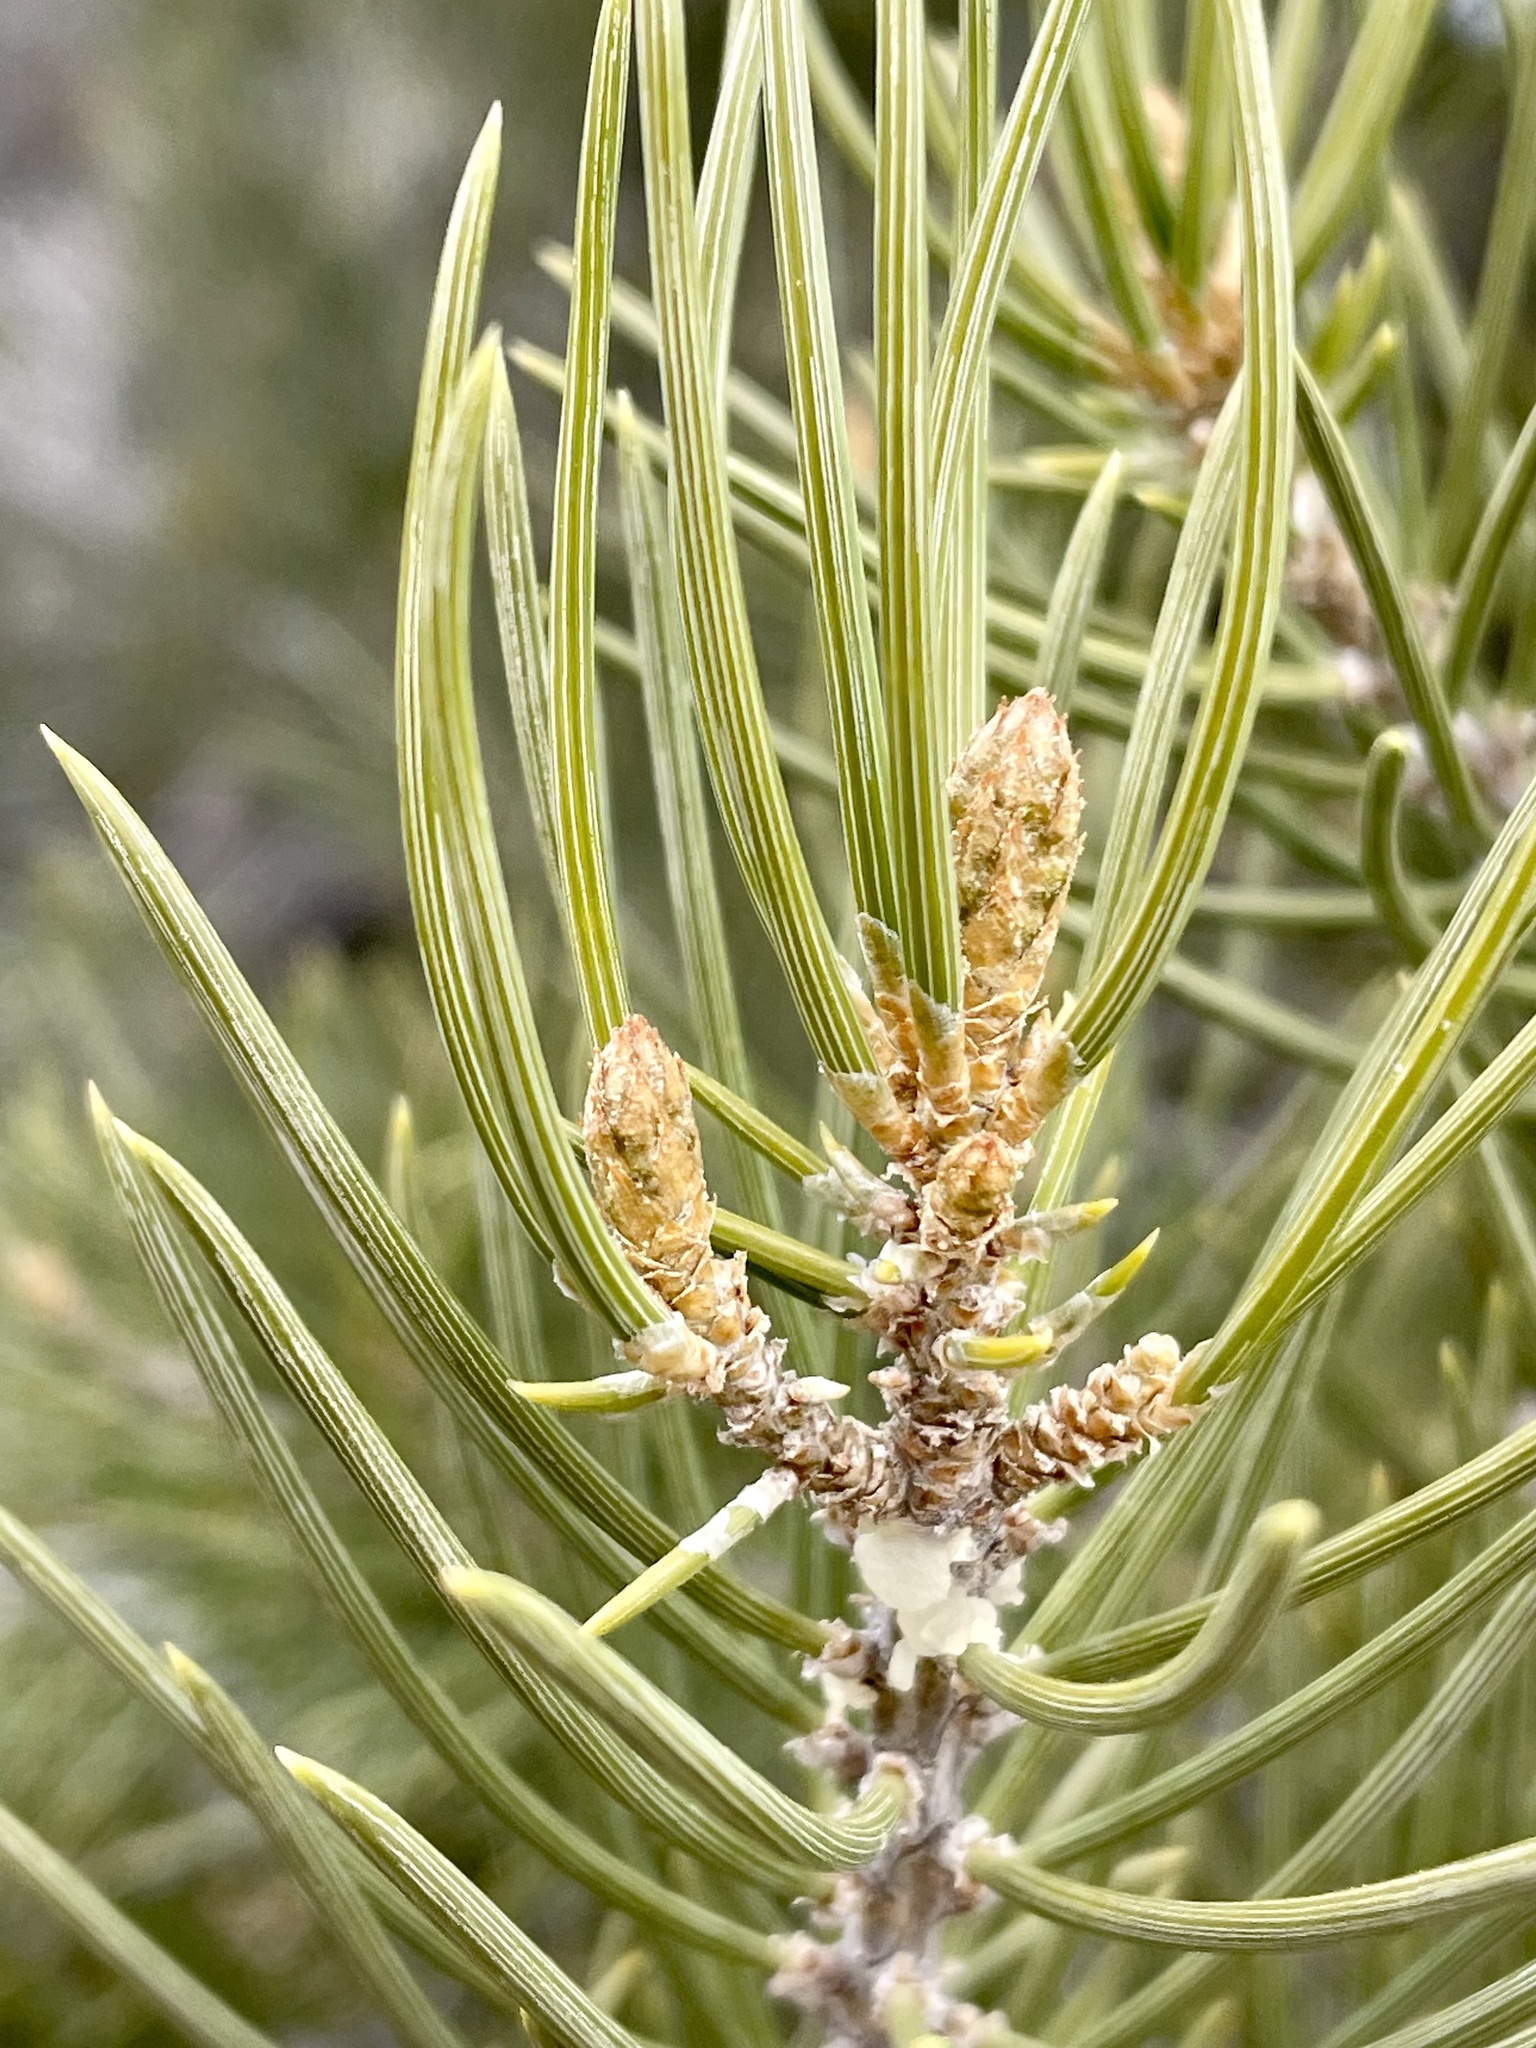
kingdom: Plantae
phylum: Tracheophyta
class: Pinopsida
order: Pinales
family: Pinaceae
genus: Pinus
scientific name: Pinus monophylla
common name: One-leaved nut pine
